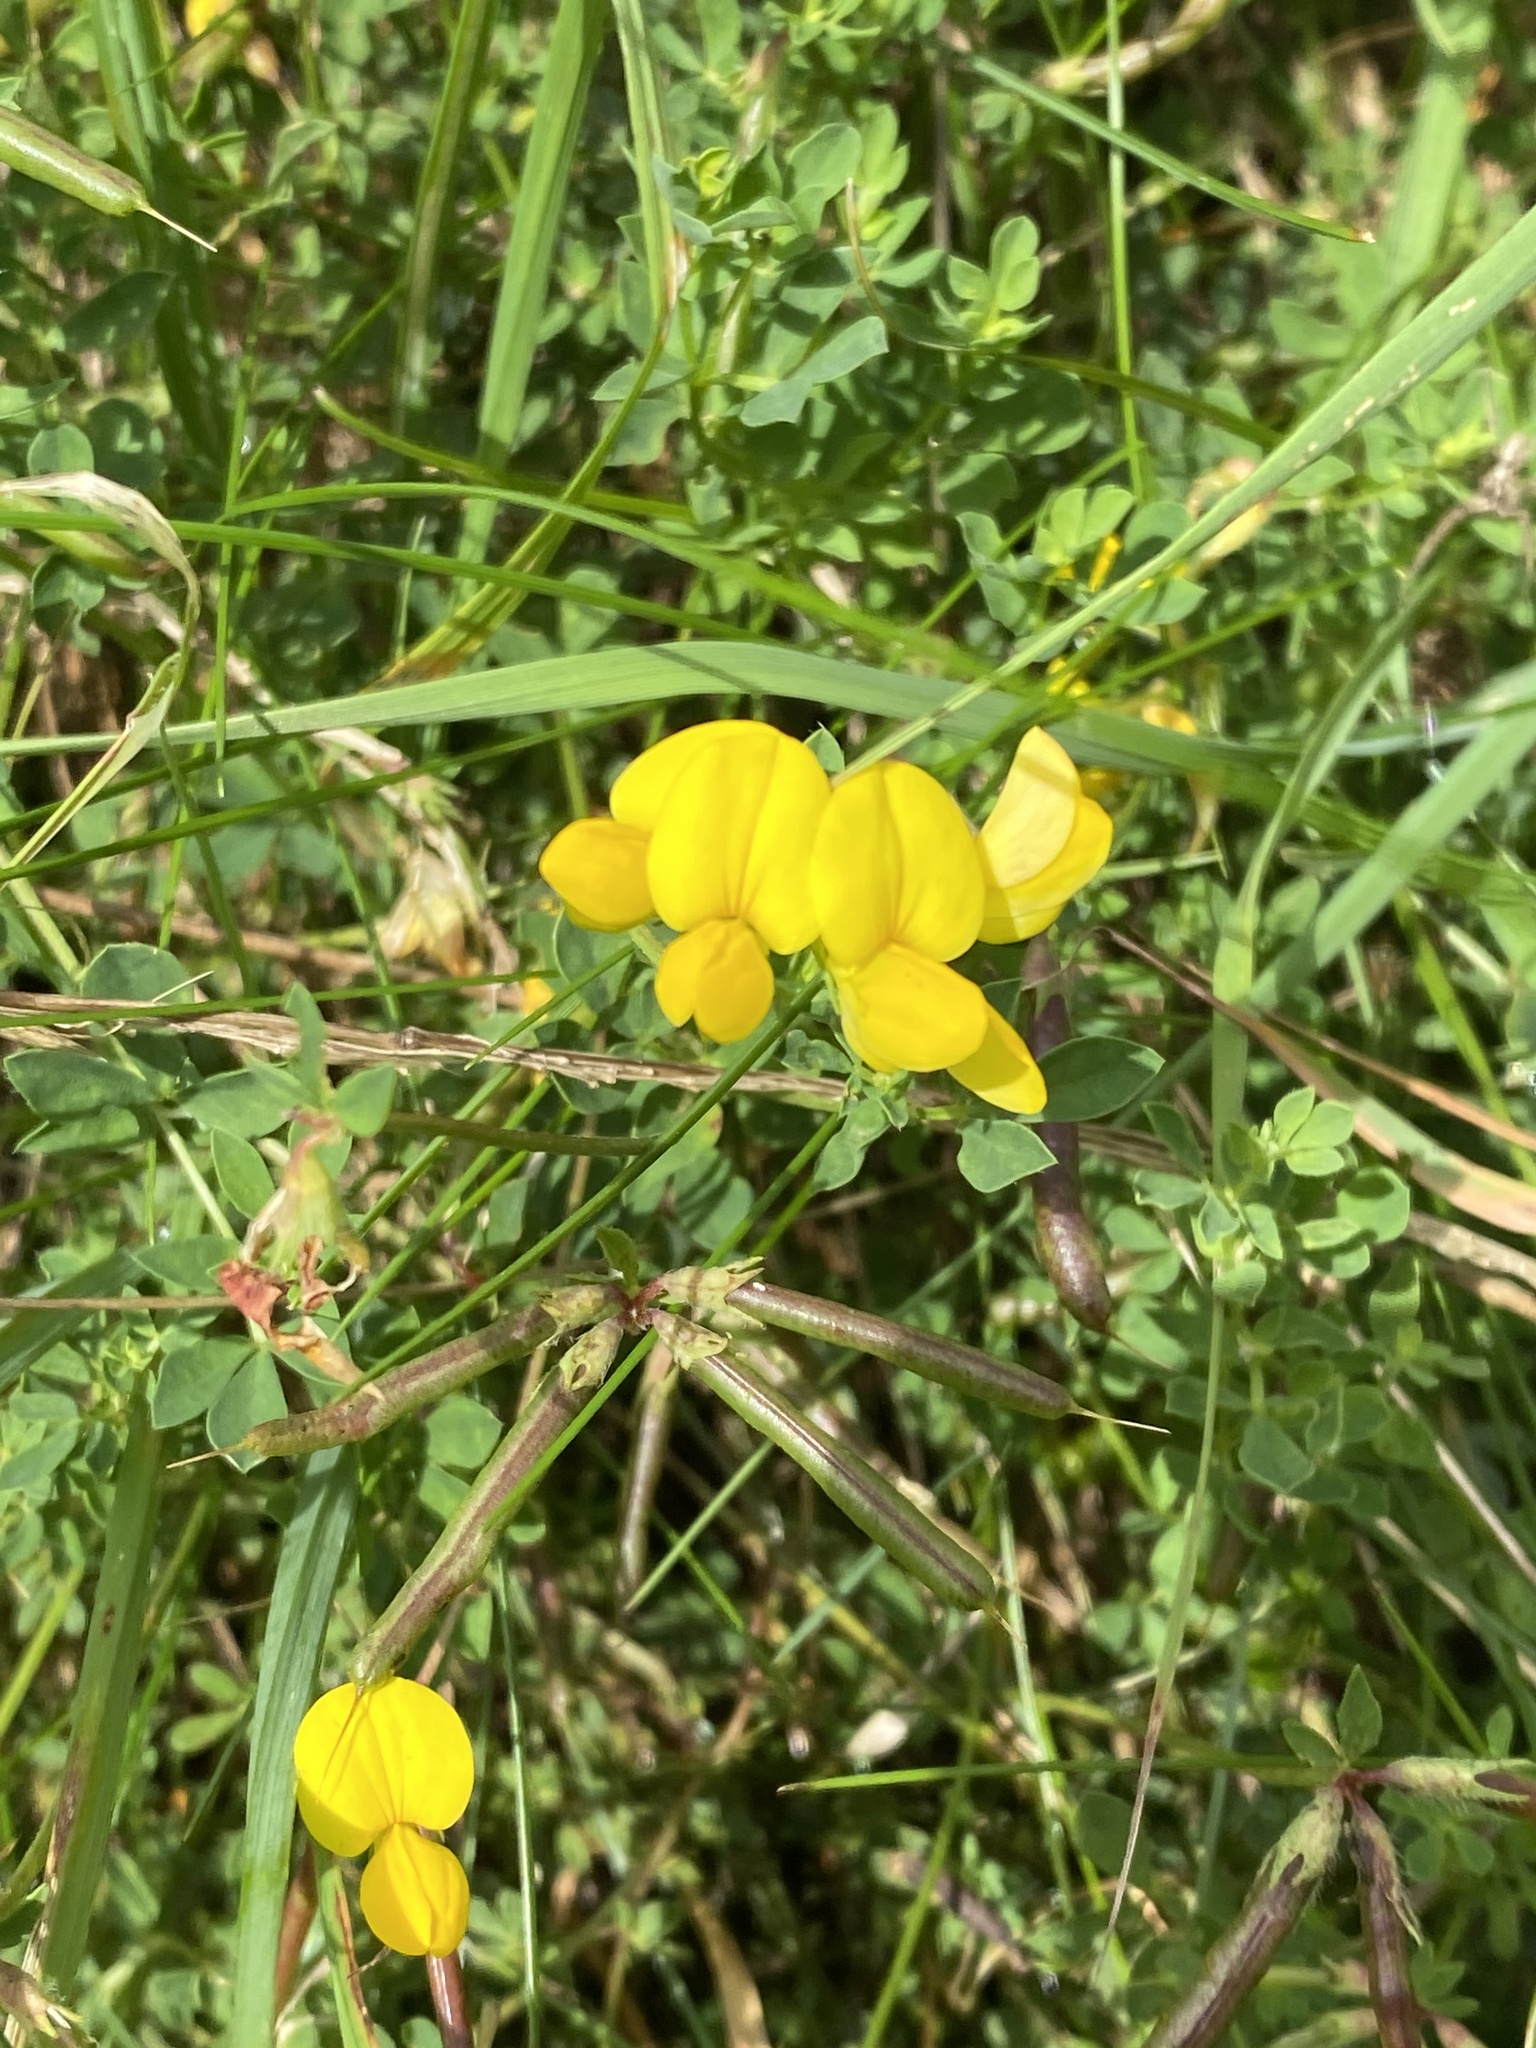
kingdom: Plantae
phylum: Tracheophyta
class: Magnoliopsida
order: Fabales
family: Fabaceae
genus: Lotus
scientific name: Lotus corniculatus
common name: Common bird's-foot-trefoil
